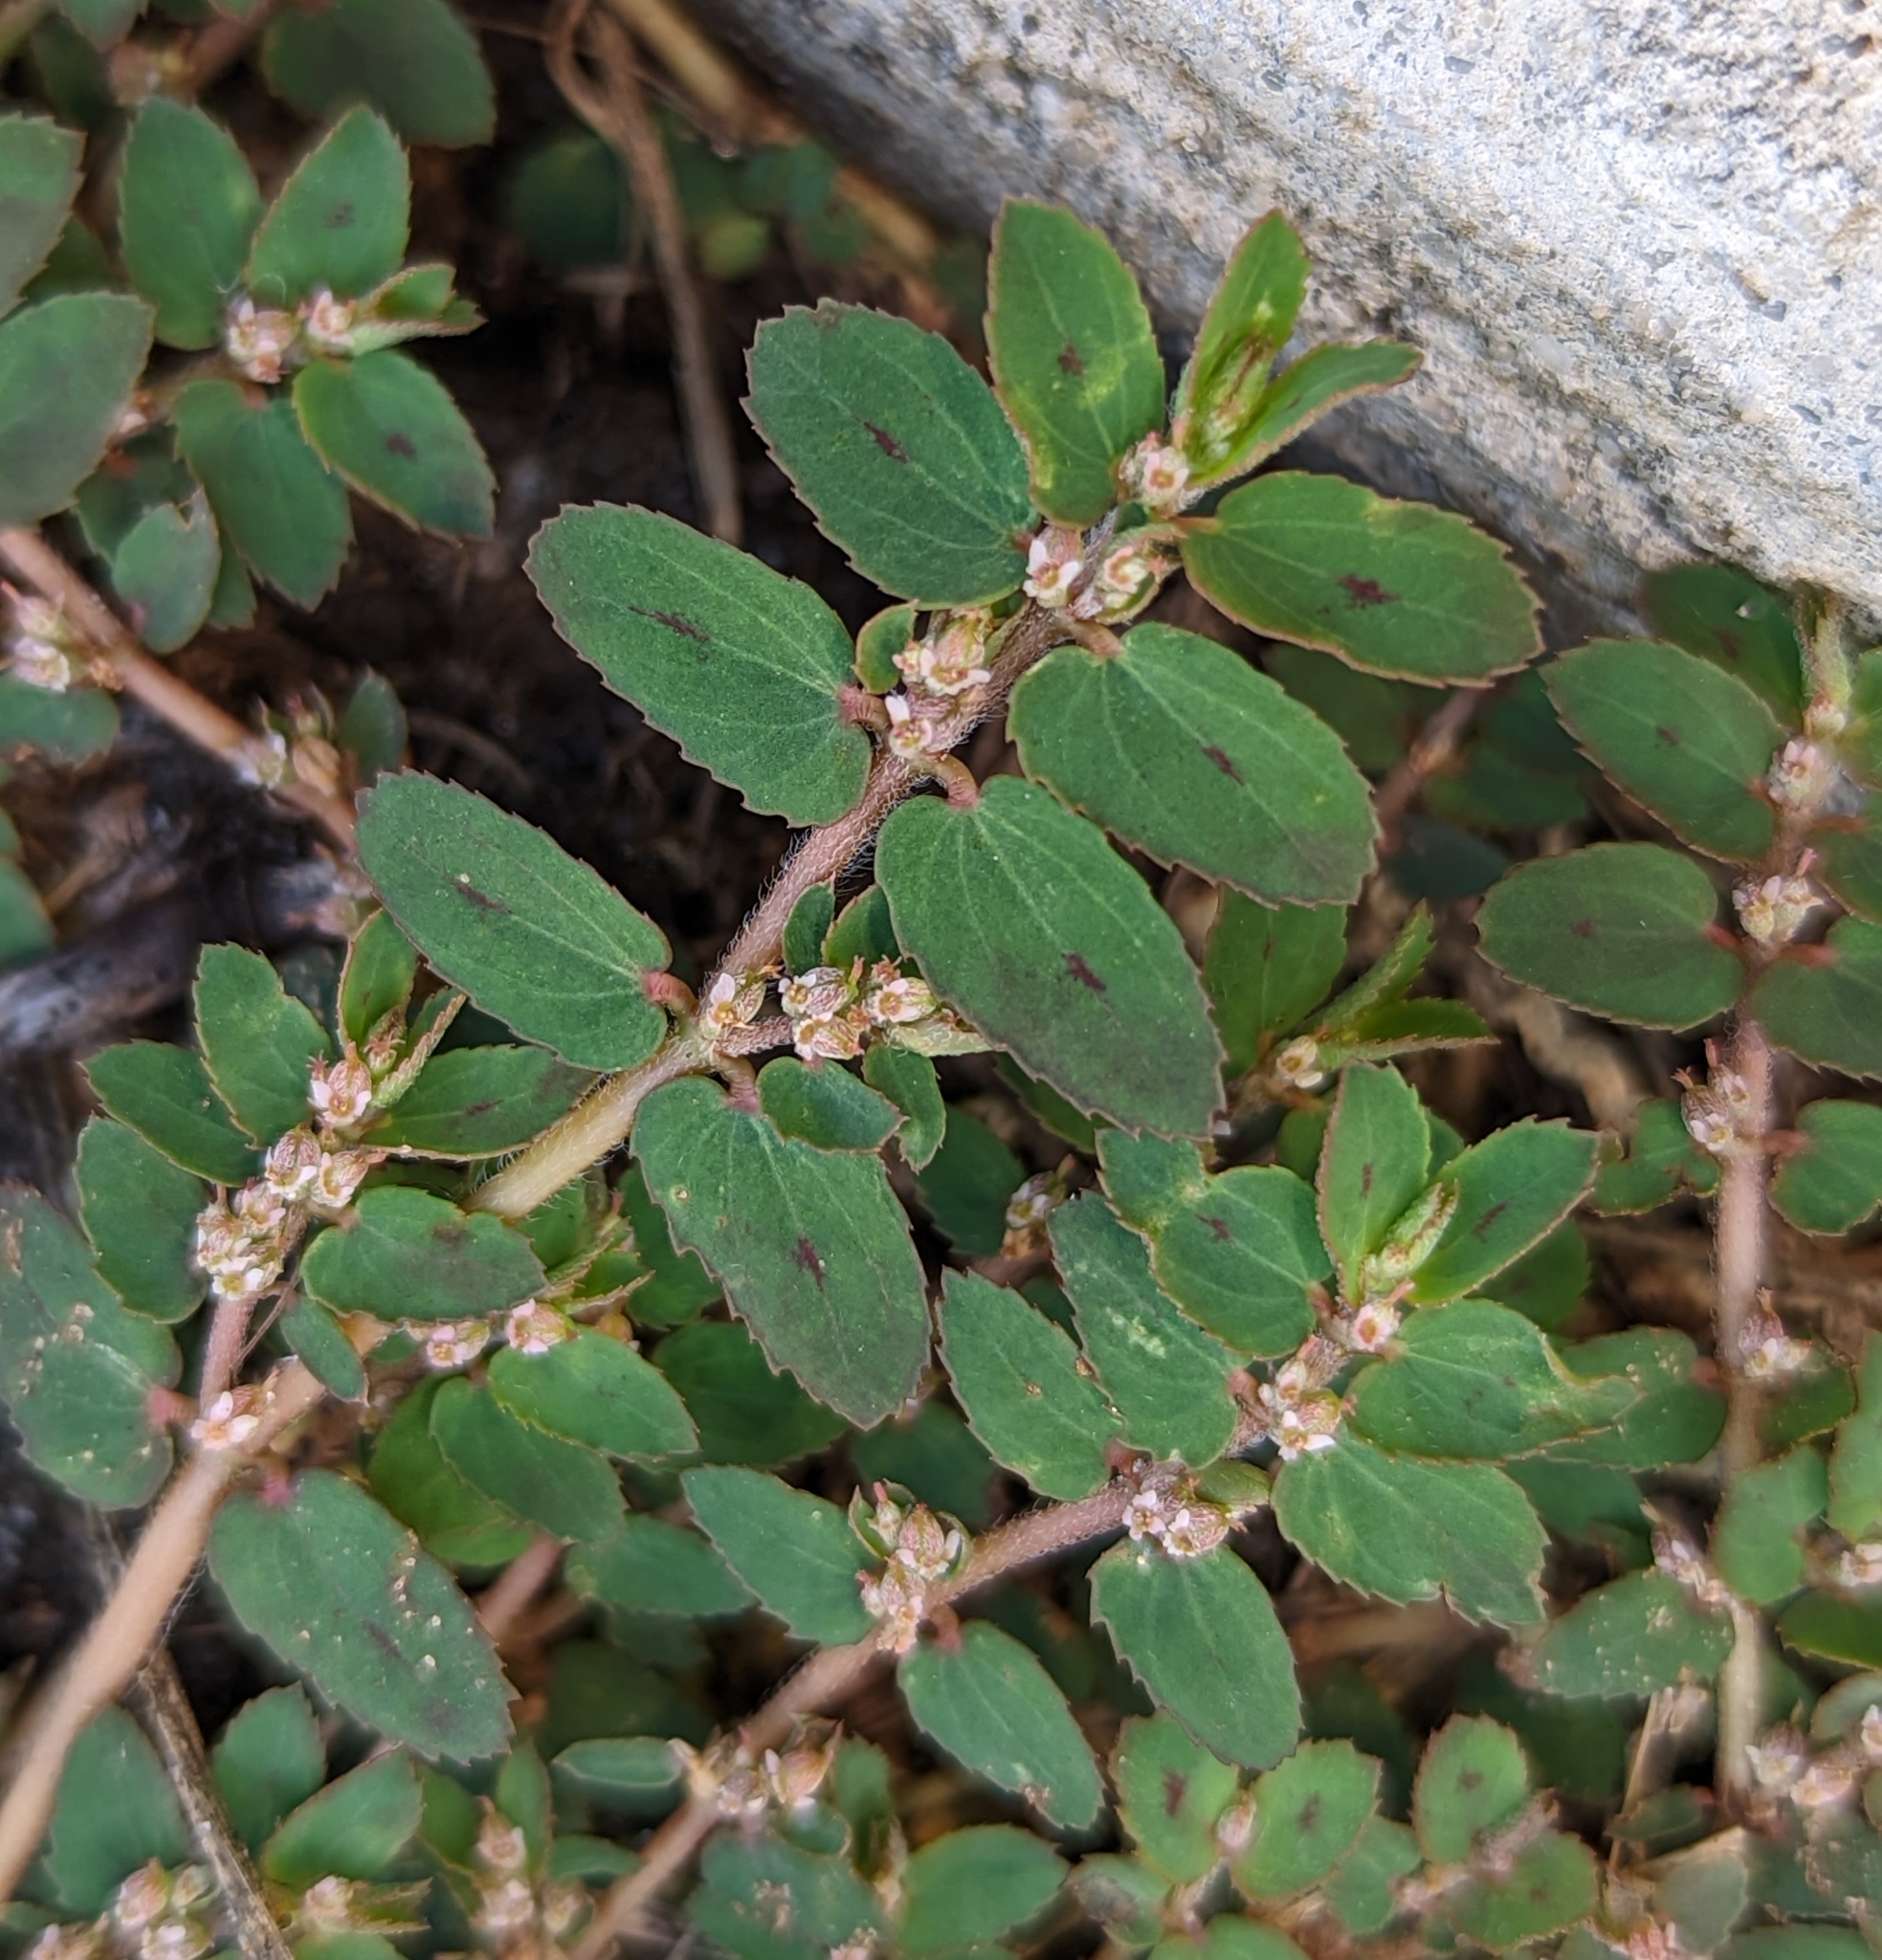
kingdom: Plantae
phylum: Tracheophyta
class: Magnoliopsida
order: Malpighiales
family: Euphorbiaceae
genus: Euphorbia
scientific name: Euphorbia thymifolia
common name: Gulf sandmat
